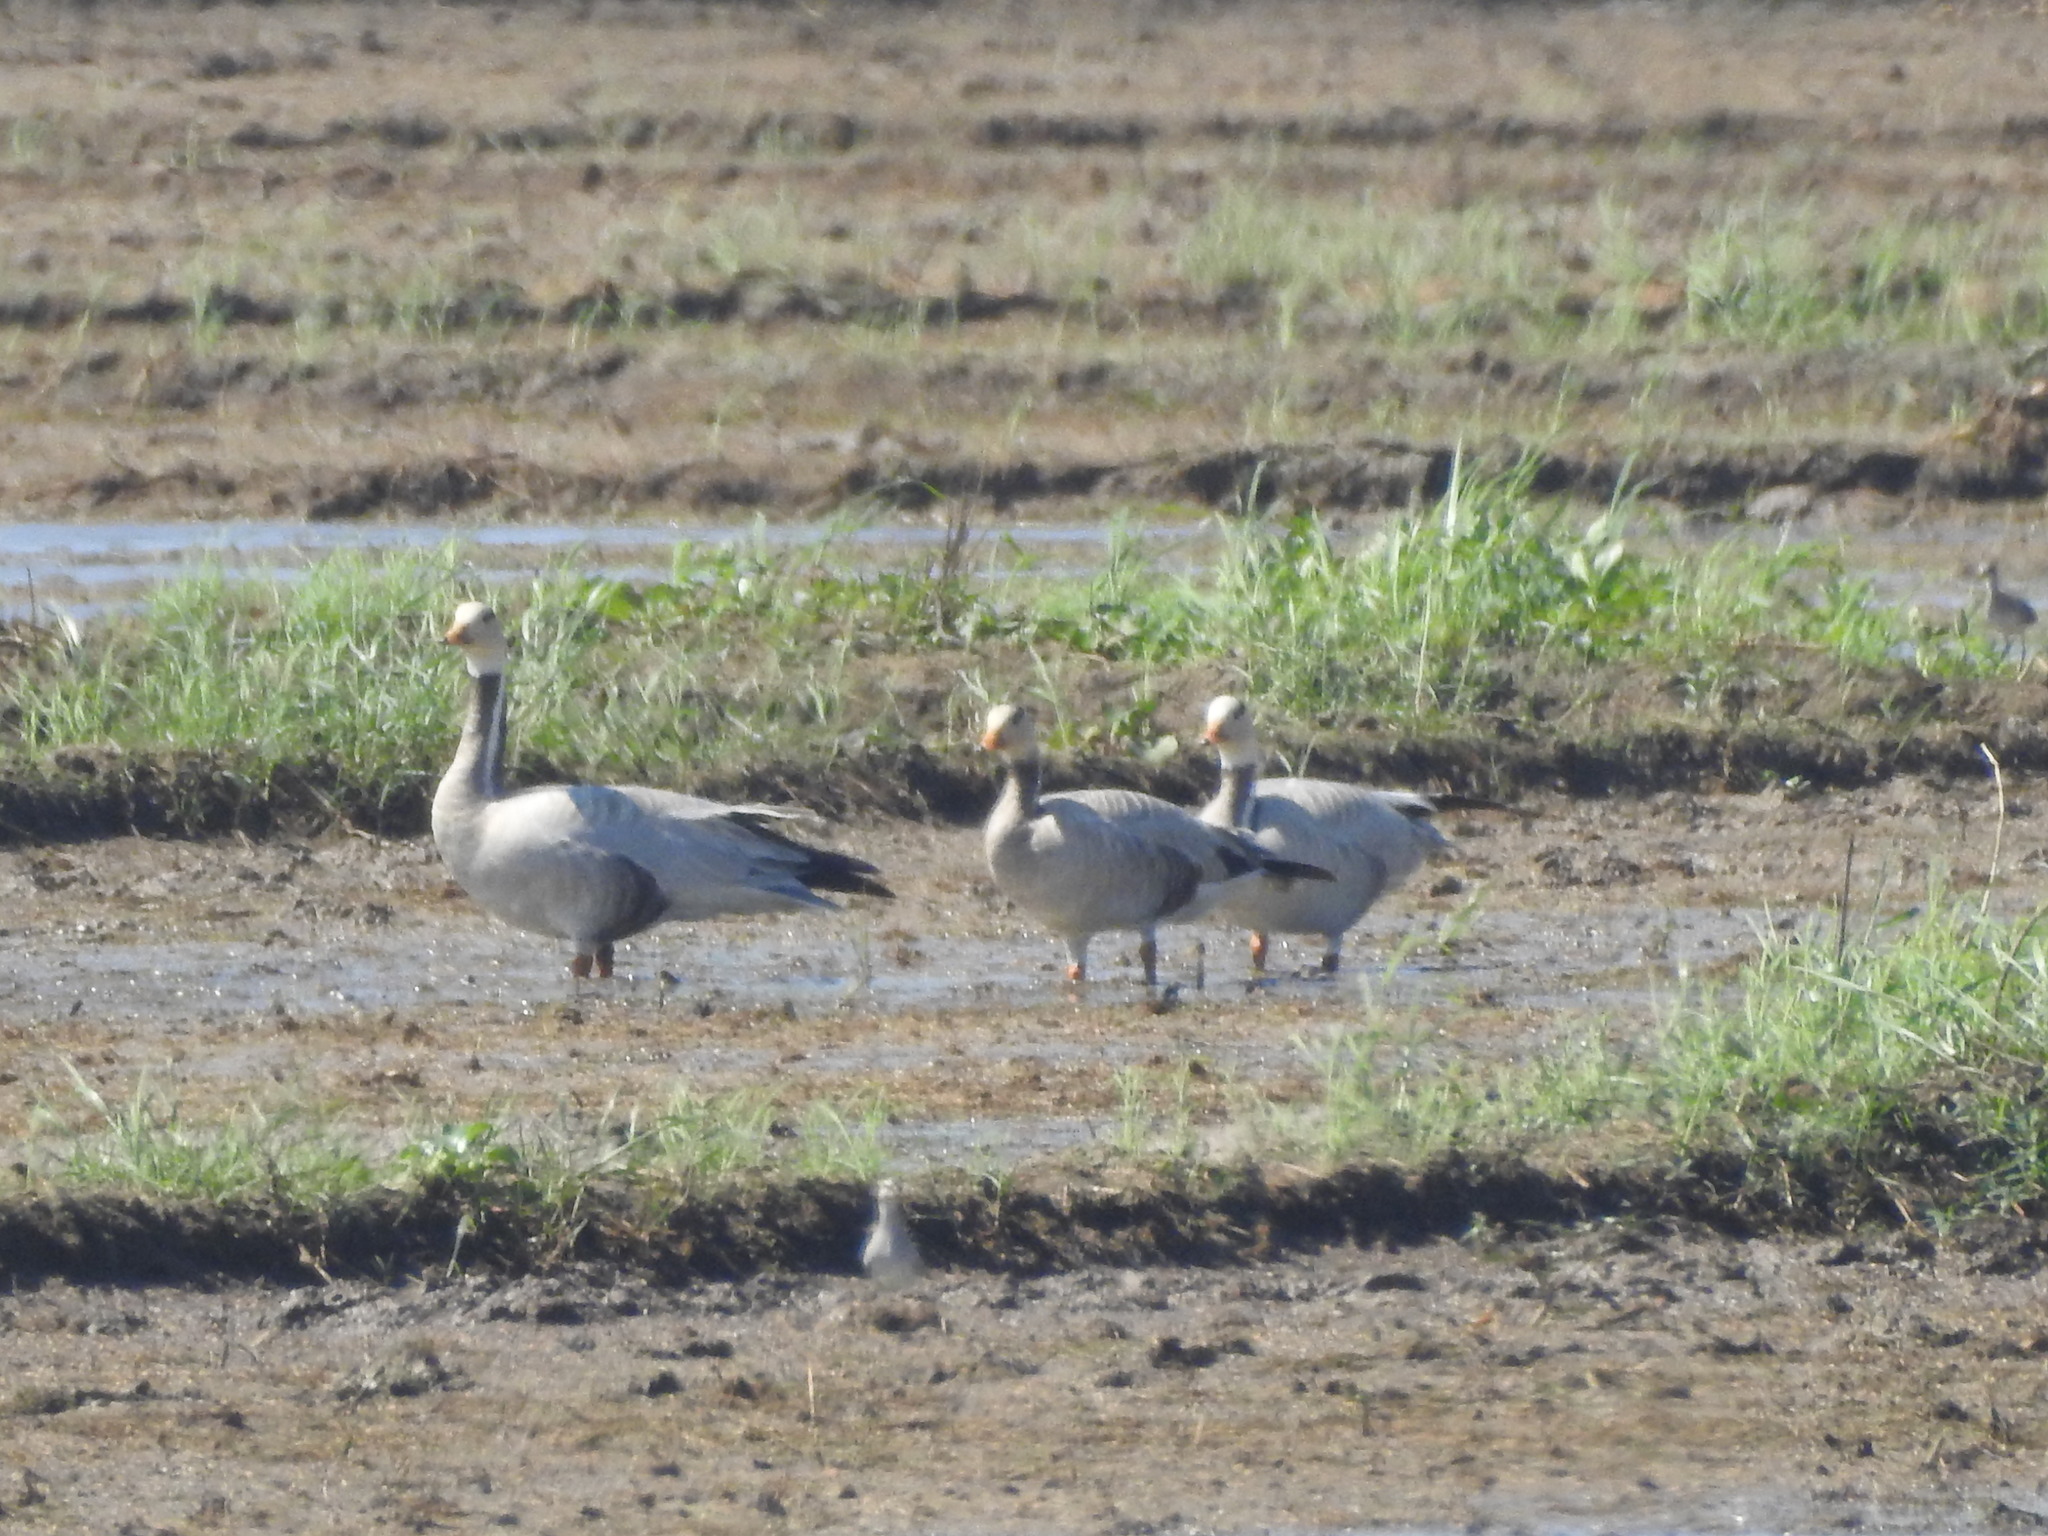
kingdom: Animalia
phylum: Chordata
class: Aves
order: Anseriformes
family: Anatidae
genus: Anser
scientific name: Anser indicus
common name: Bar-headed goose
